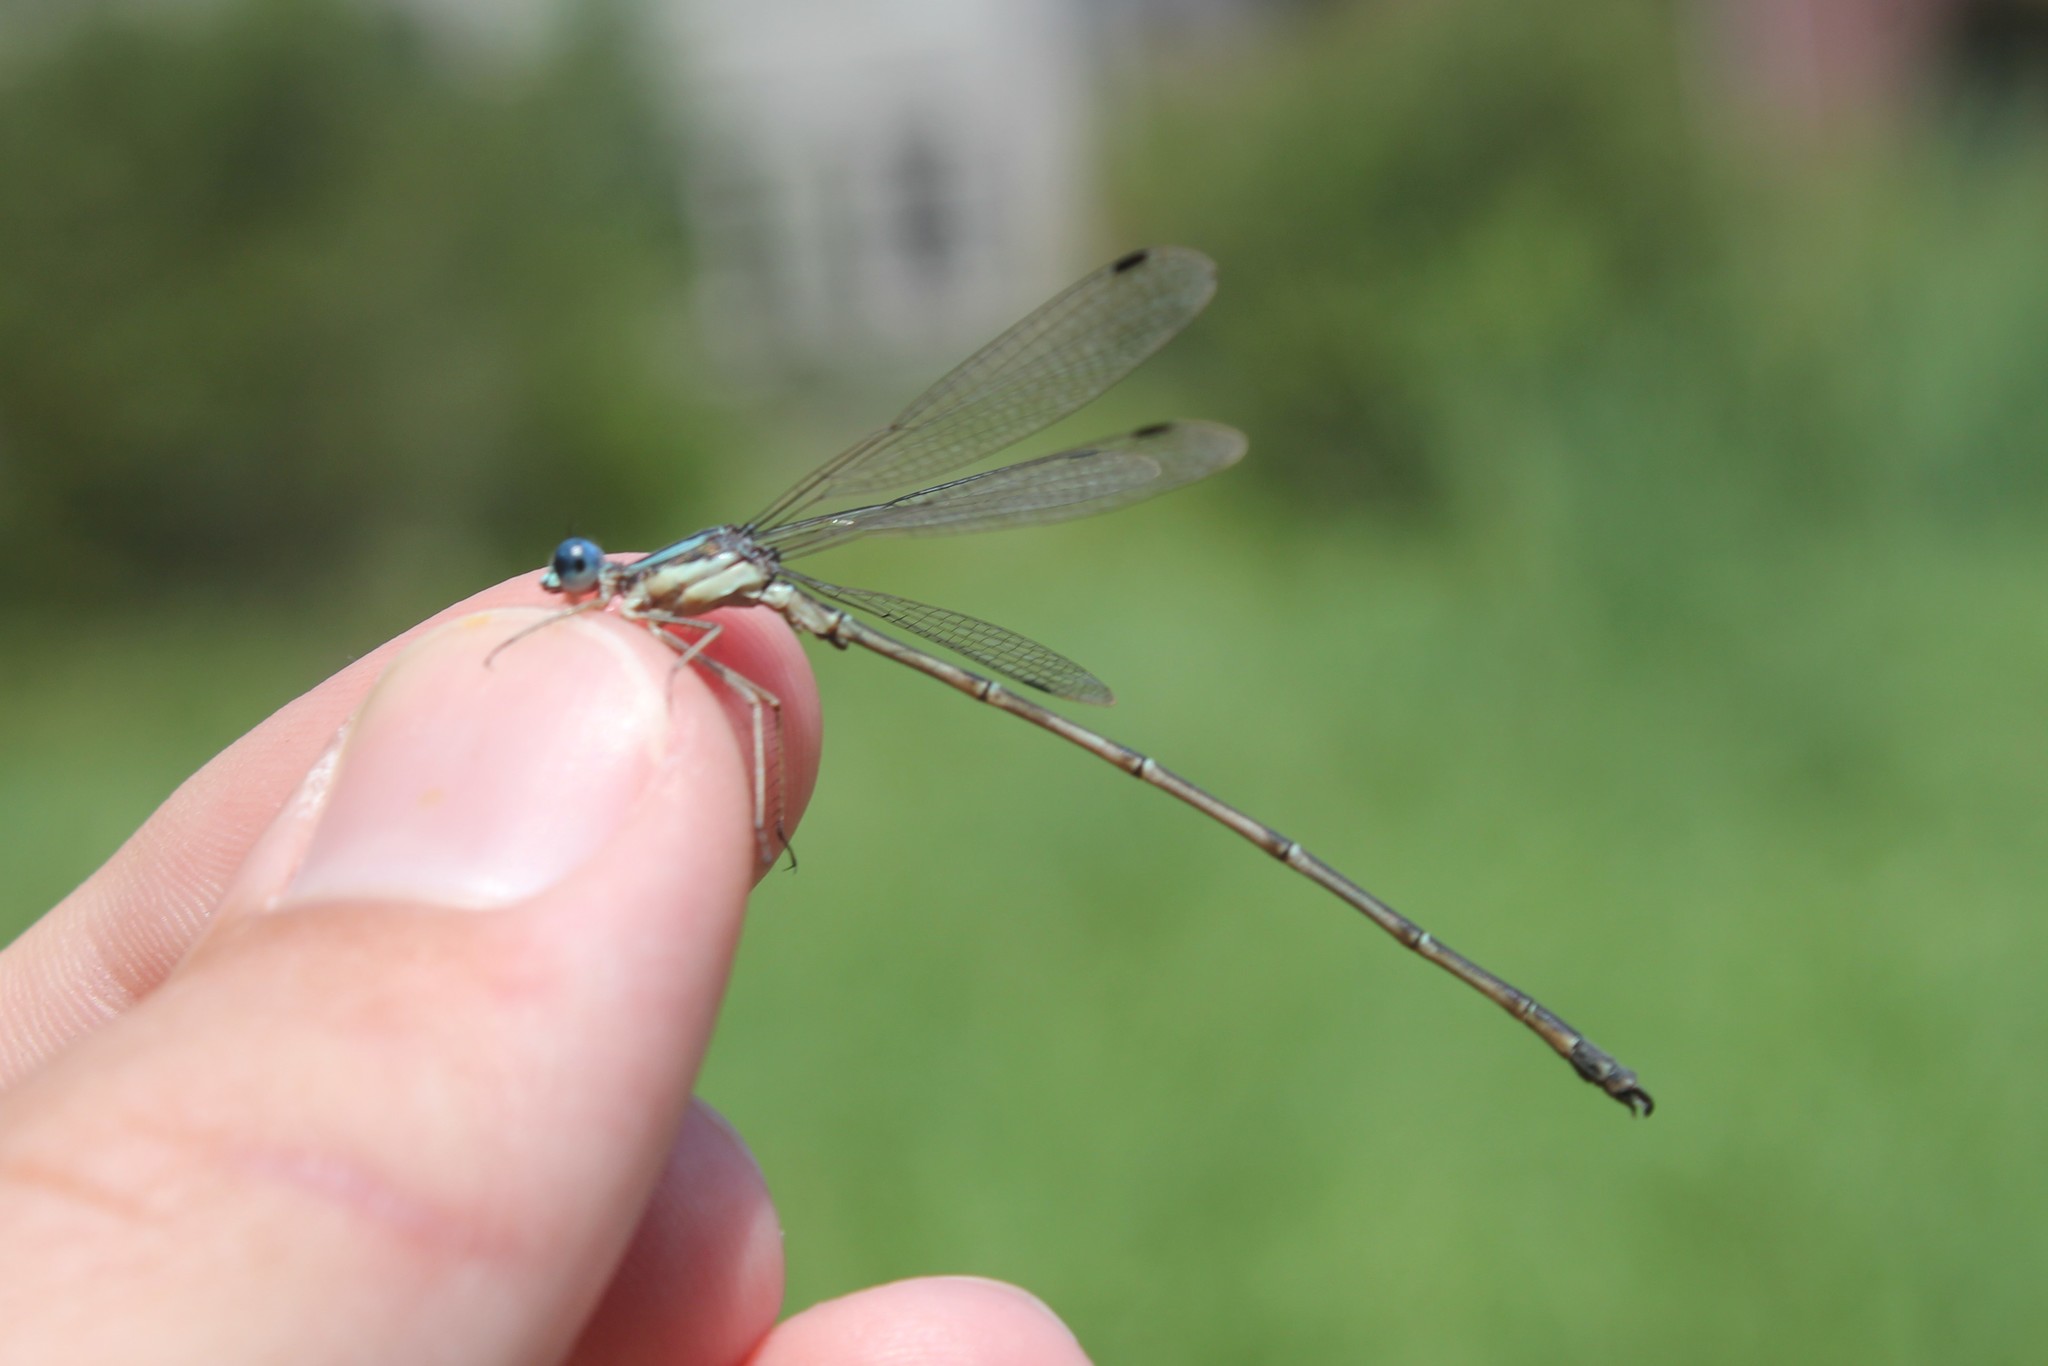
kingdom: Animalia
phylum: Arthropoda
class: Insecta
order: Odonata
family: Lestidae
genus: Lestes
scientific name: Lestes rectangularis
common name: Slender spreadwing
